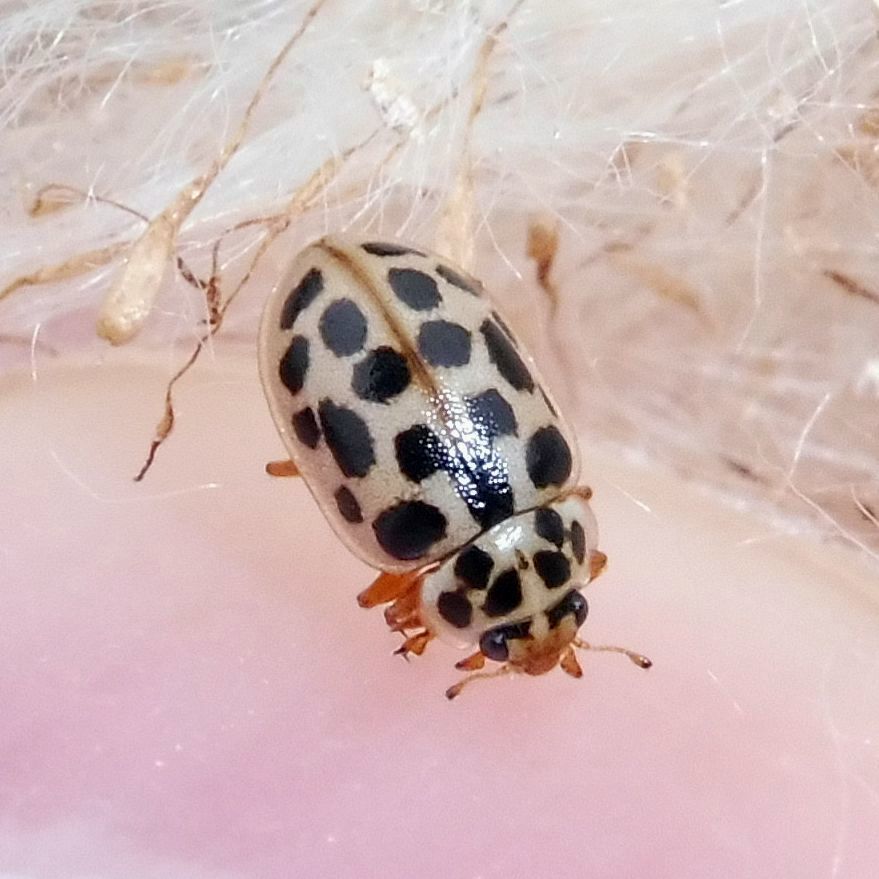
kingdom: Animalia
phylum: Arthropoda
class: Insecta
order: Coleoptera
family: Coccinellidae
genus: Anisosticta
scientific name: Anisosticta novemdecimpunctata
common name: Water ladybird
